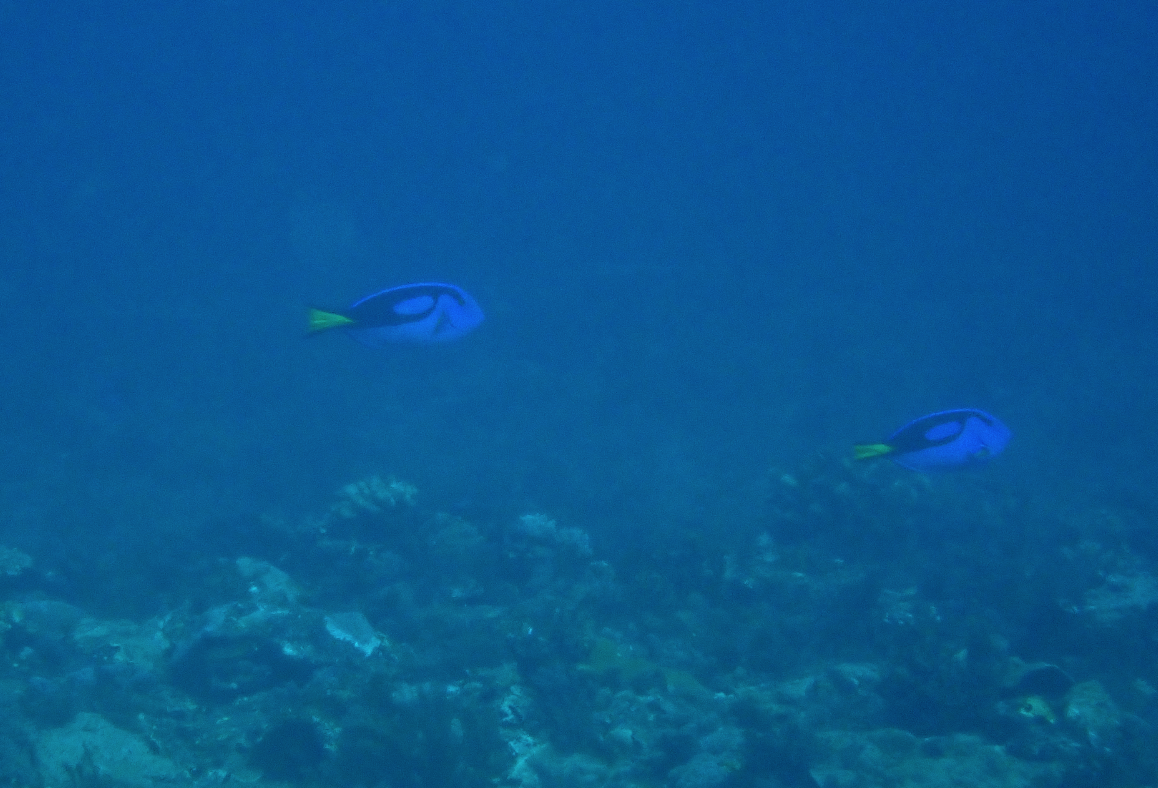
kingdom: Animalia
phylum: Chordata
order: Perciformes
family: Acanthuridae
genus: Paracanthurus
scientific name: Paracanthurus hepatus
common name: Palette surgeonfish
